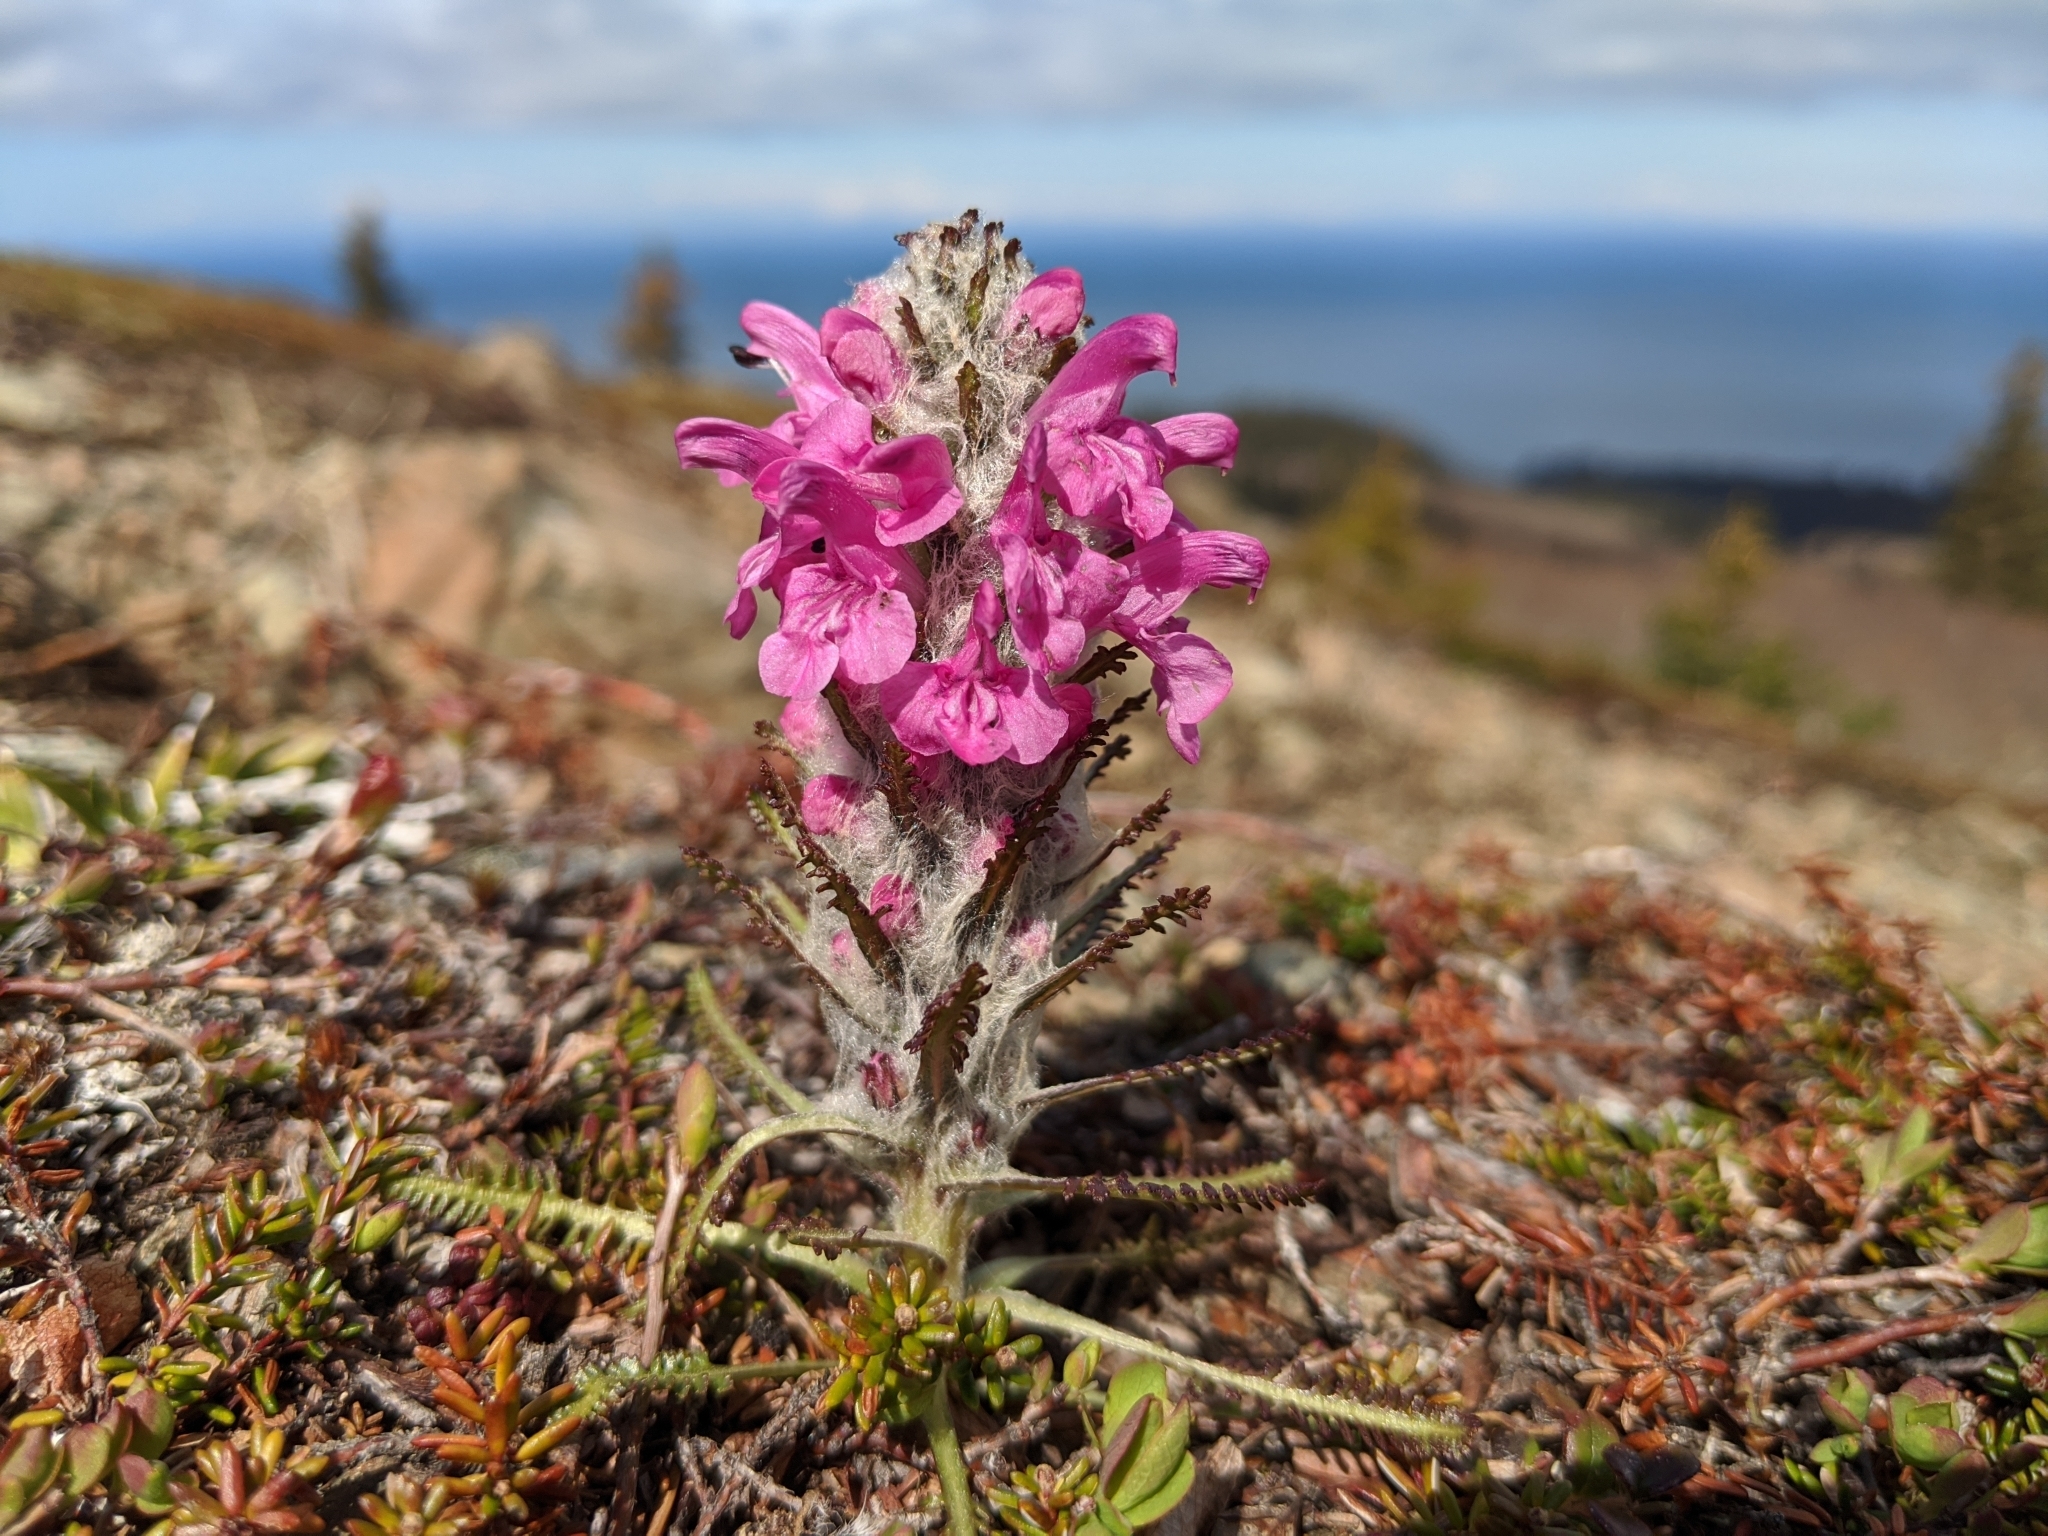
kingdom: Plantae
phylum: Tracheophyta
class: Magnoliopsida
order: Lamiales
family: Orobanchaceae
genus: Pedicularis
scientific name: Pedicularis lanata
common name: Woolly lousewort
